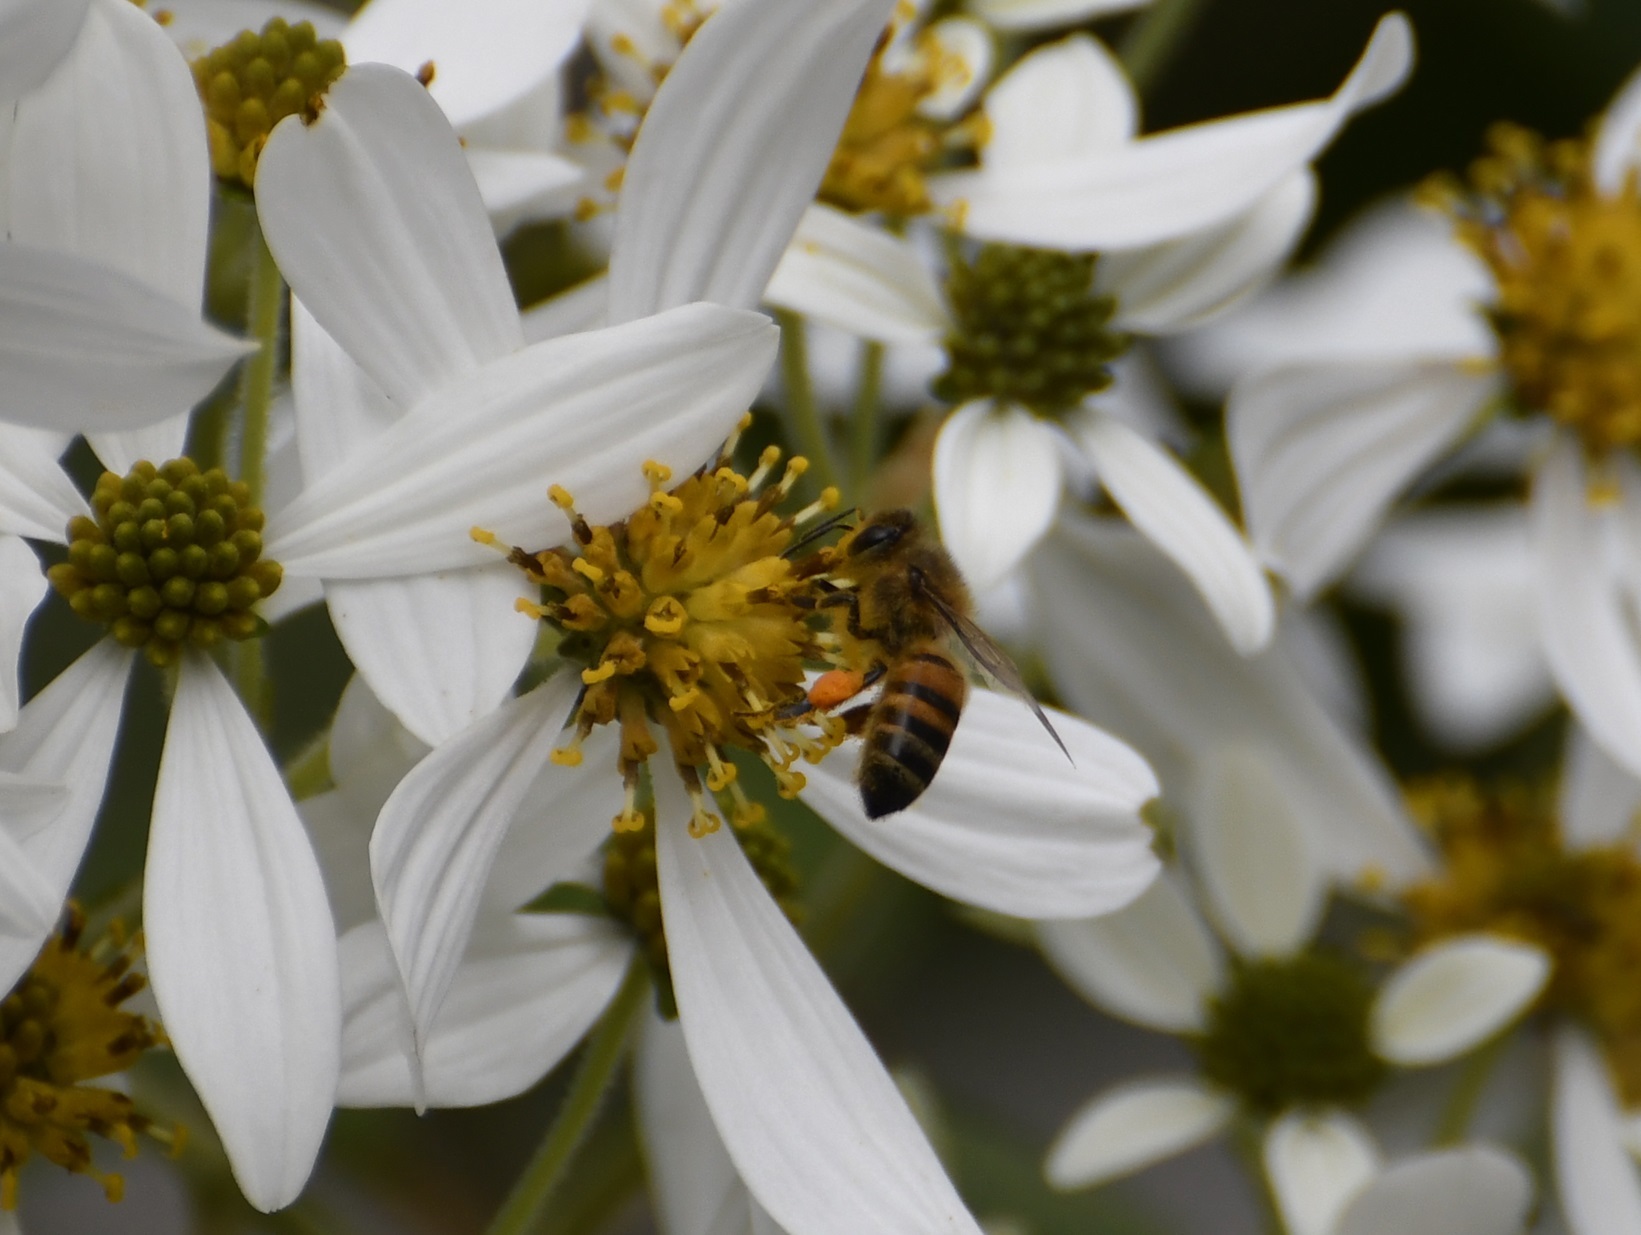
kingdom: Animalia
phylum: Arthropoda
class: Insecta
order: Hymenoptera
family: Apidae
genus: Apis
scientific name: Apis mellifera
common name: Honey bee
